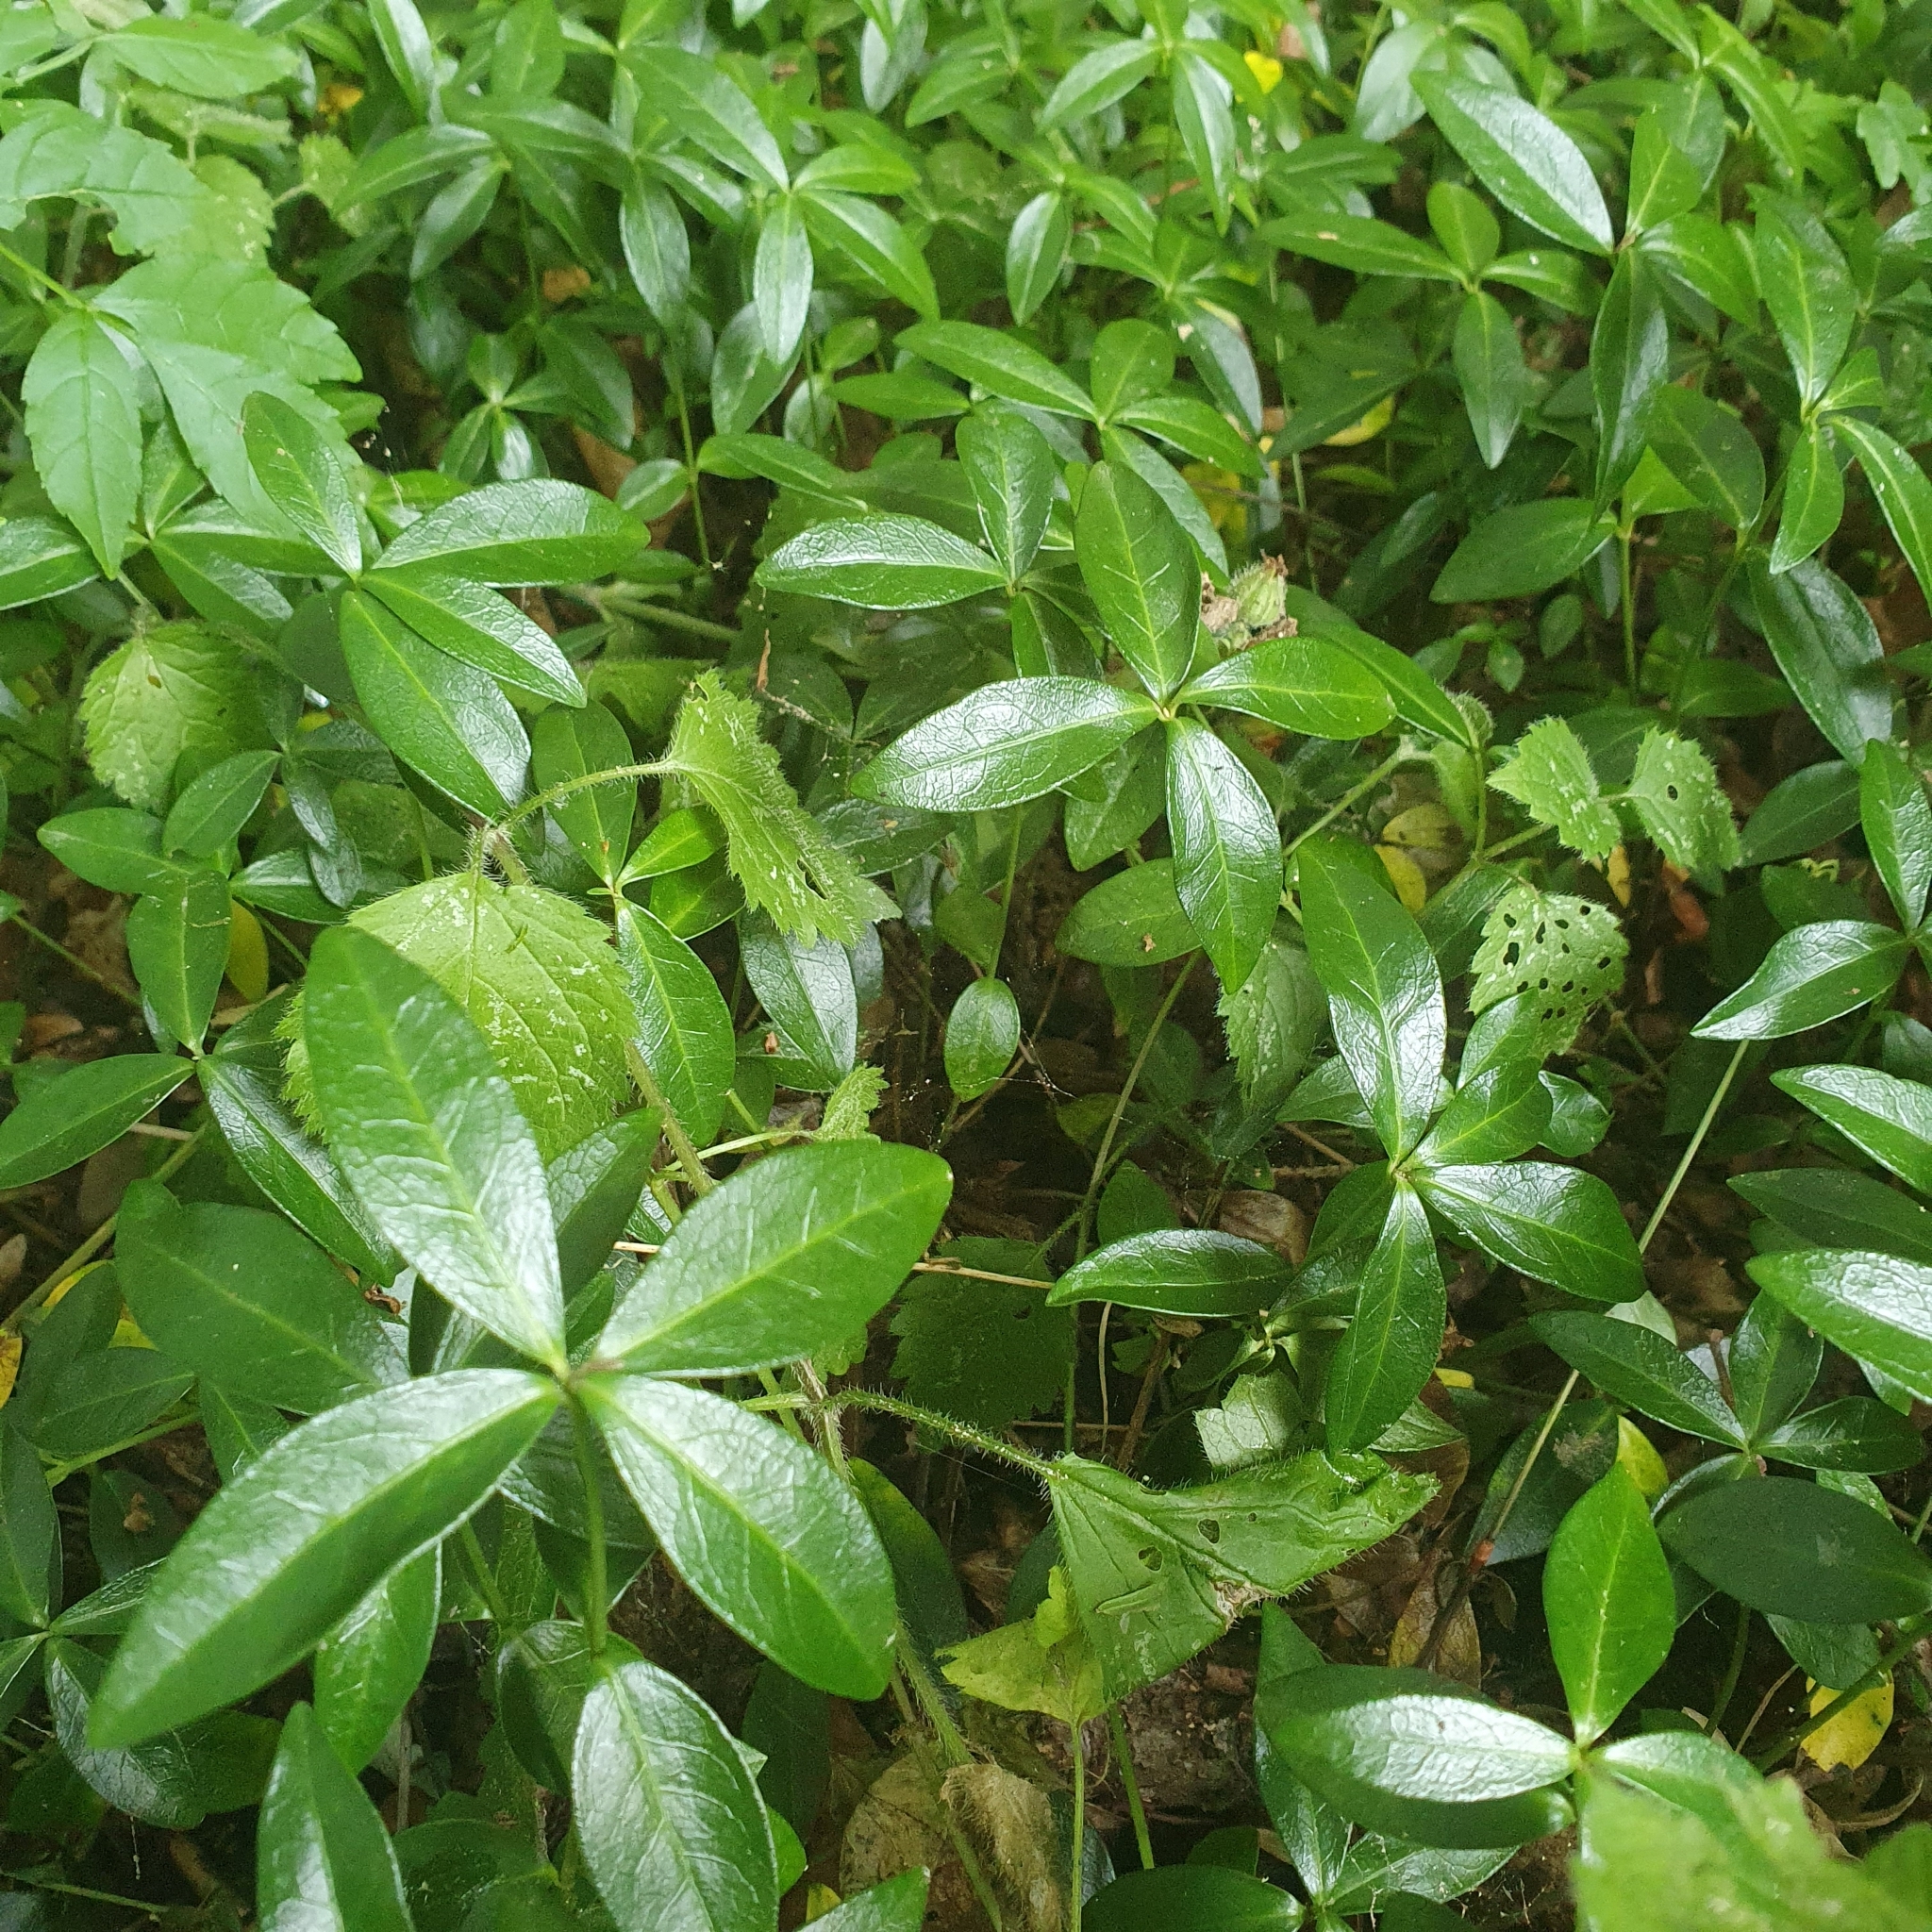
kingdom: Plantae
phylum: Tracheophyta
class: Magnoliopsida
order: Gentianales
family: Apocynaceae
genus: Vinca
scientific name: Vinca minor
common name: Lesser periwinkle
